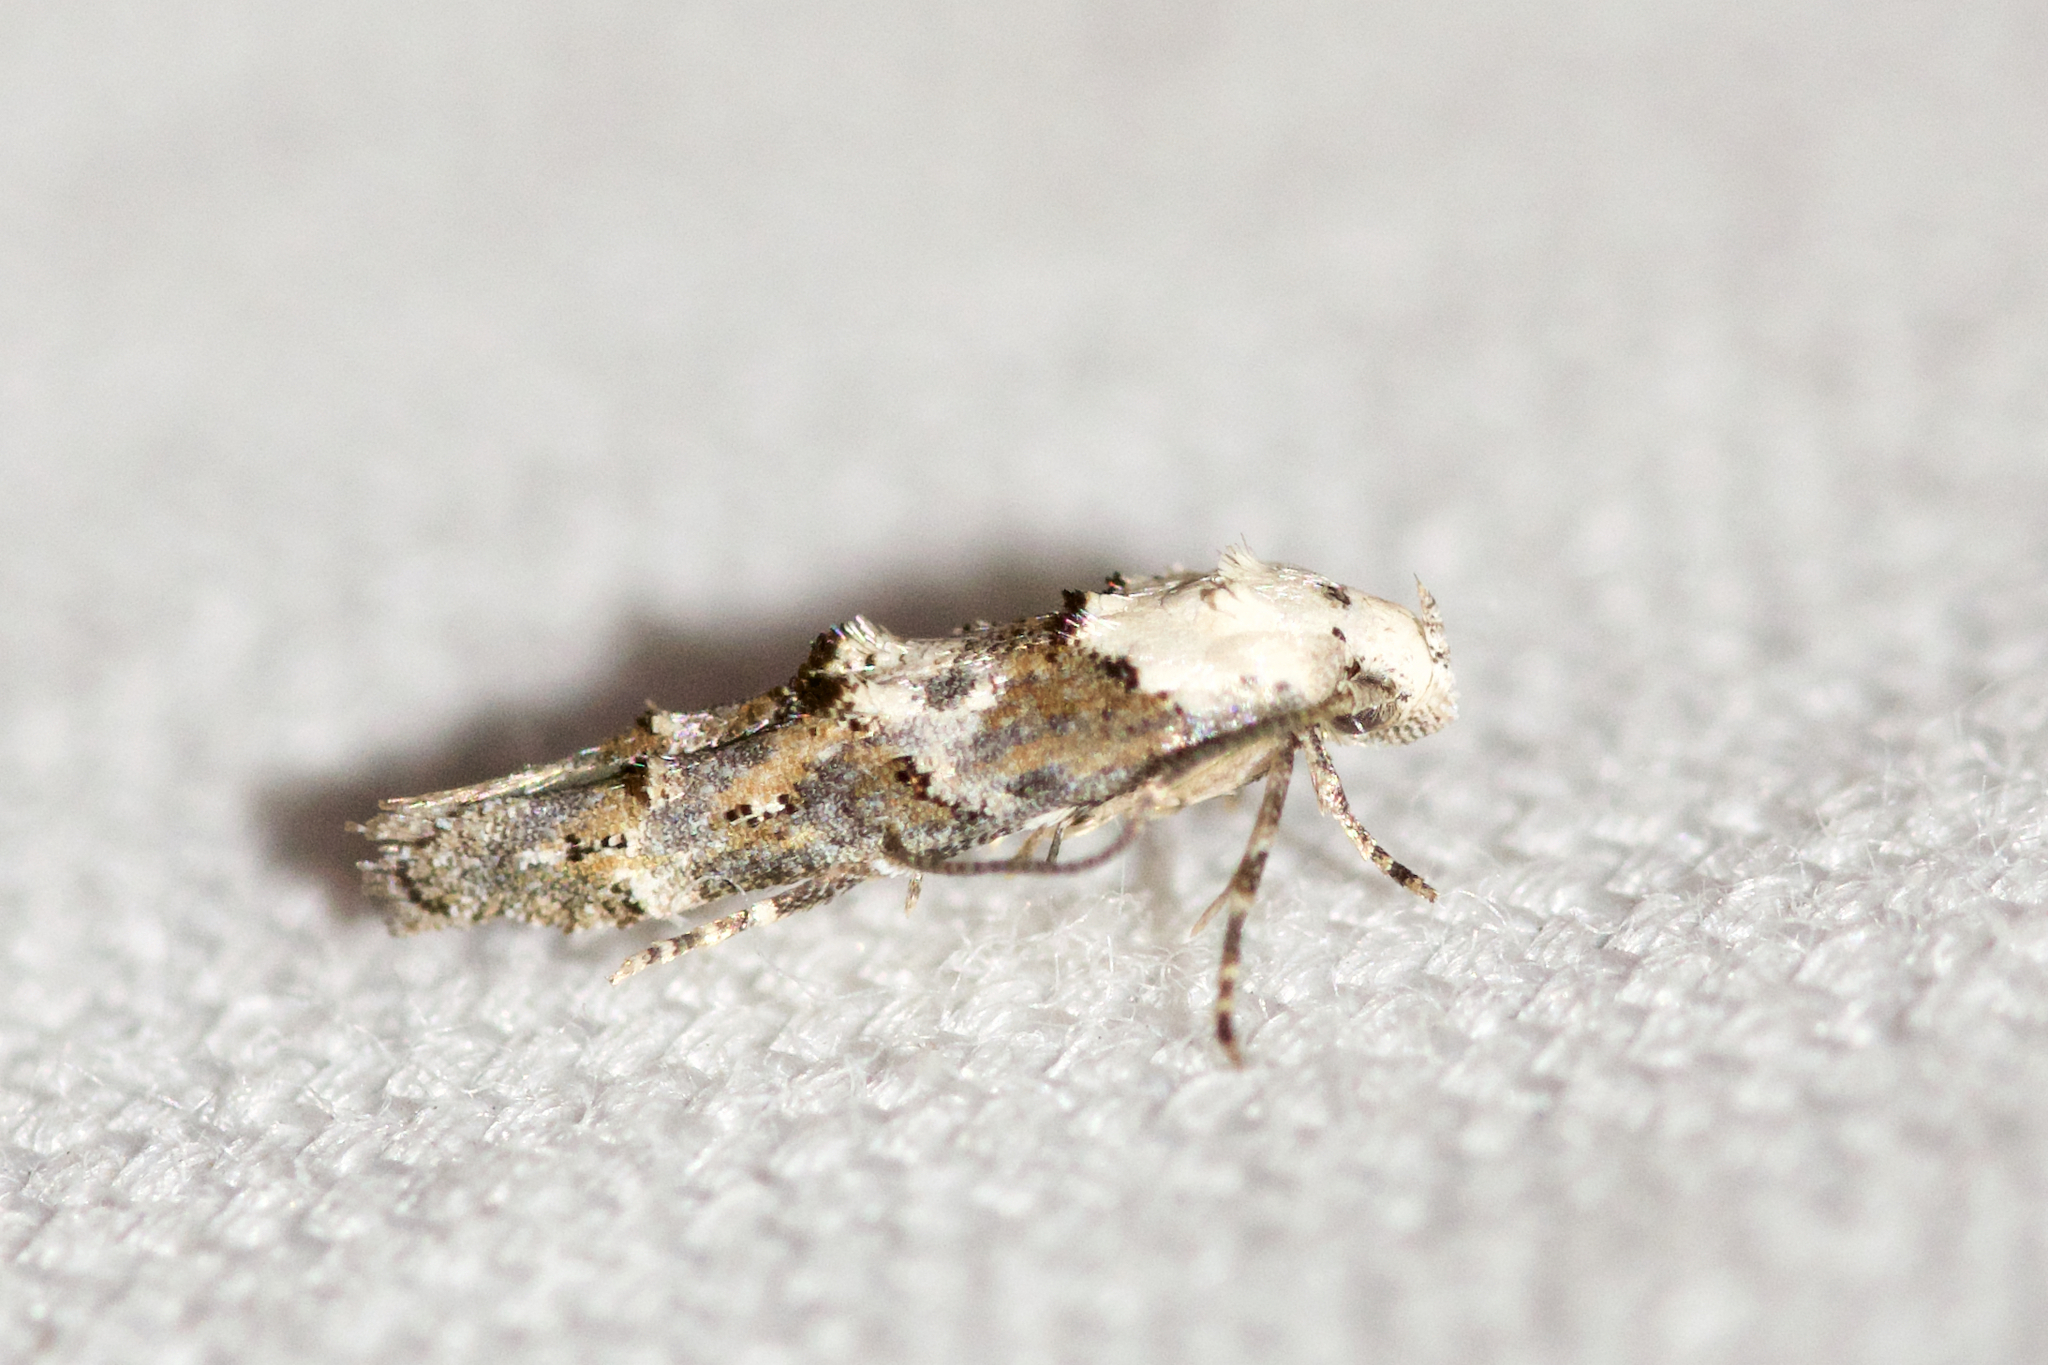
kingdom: Animalia
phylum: Arthropoda
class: Insecta
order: Lepidoptera
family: Momphidae
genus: Mompha
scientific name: Mompha albocapitella
